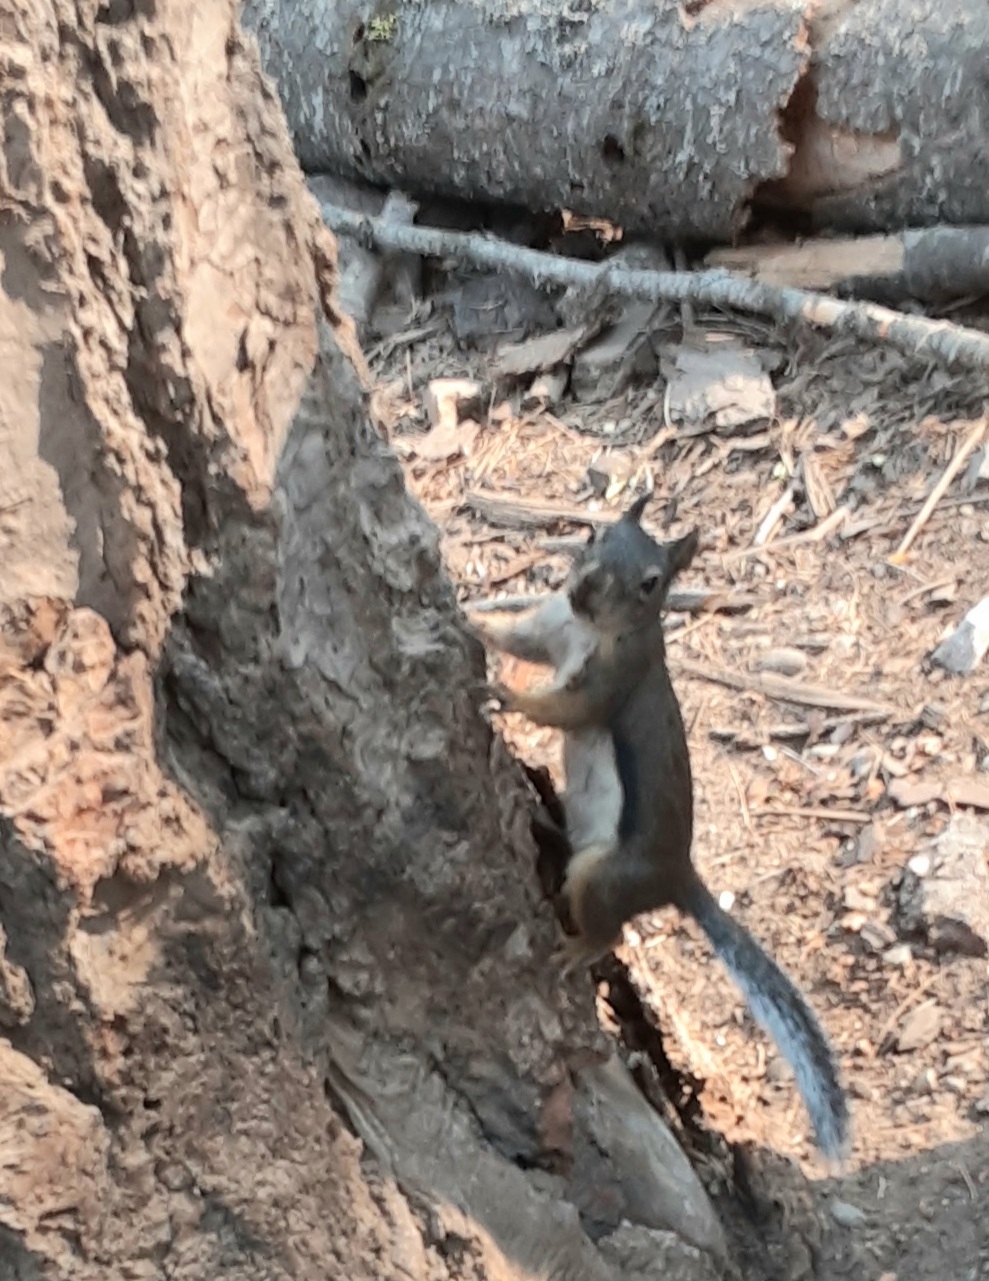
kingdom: Animalia
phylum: Chordata
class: Mammalia
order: Rodentia
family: Sciuridae
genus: Tamiasciurus
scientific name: Tamiasciurus douglasii
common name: Douglas's squirrel
